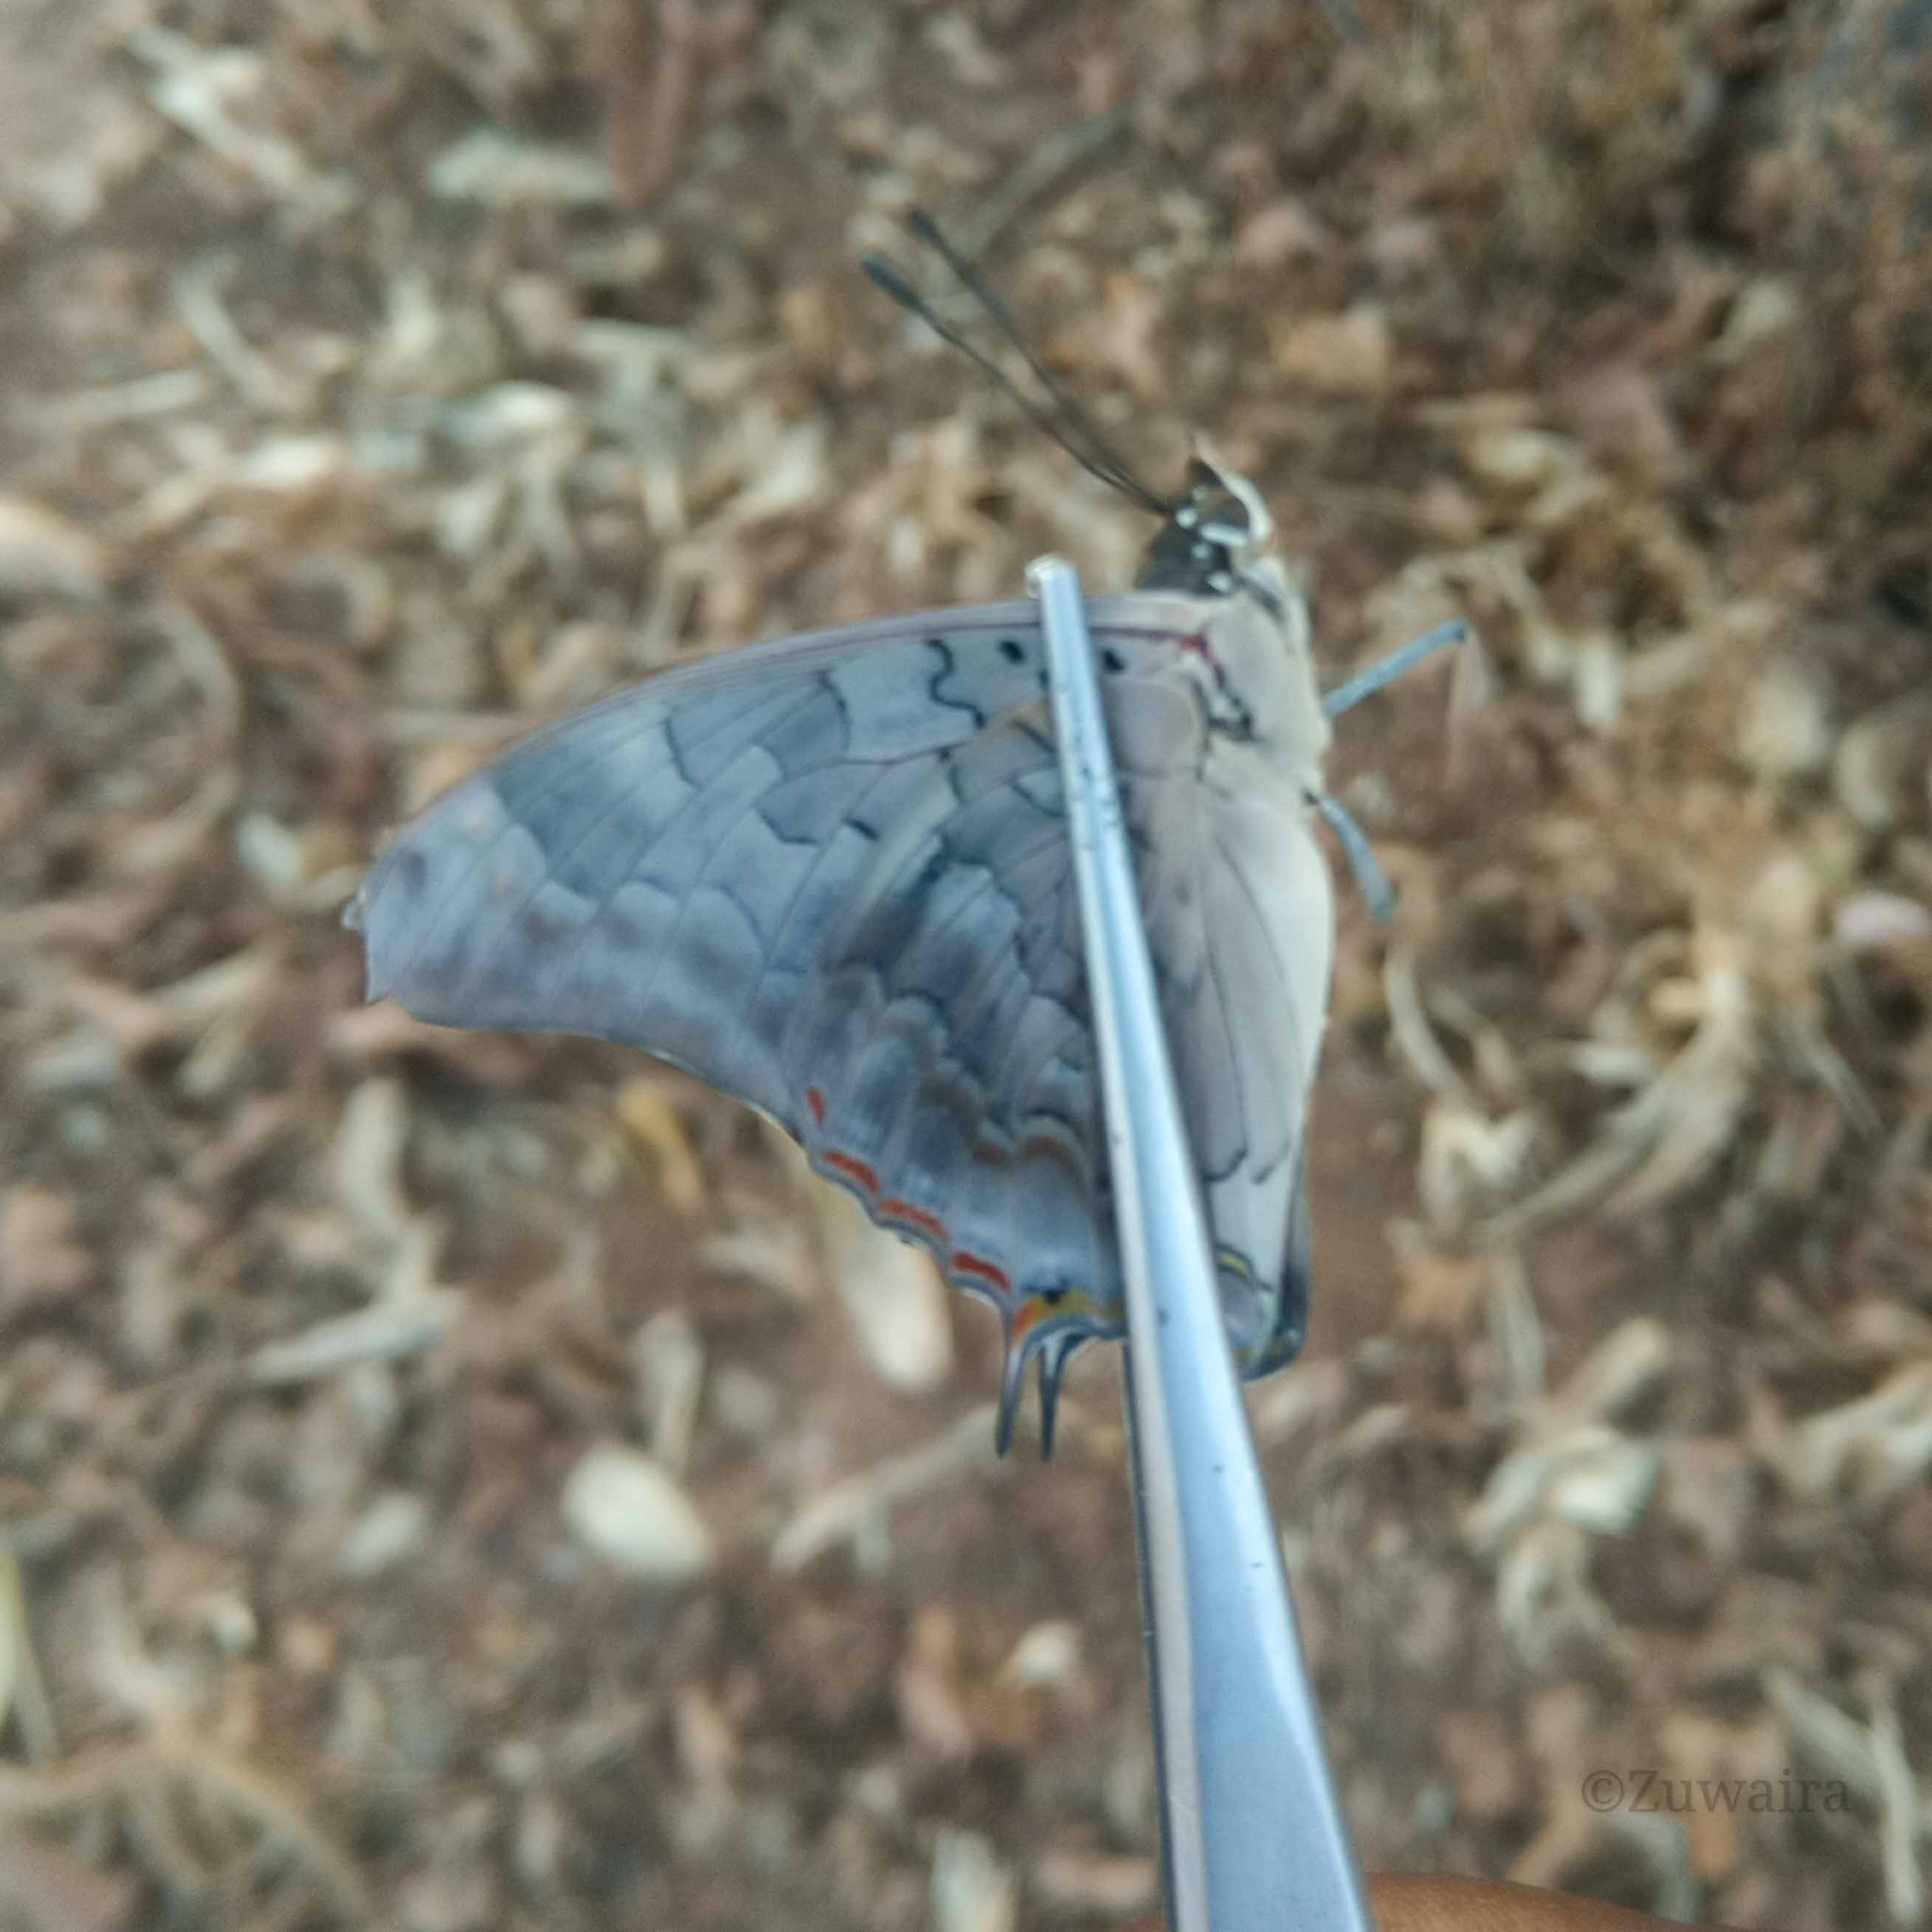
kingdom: Animalia
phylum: Arthropoda
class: Insecta
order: Lepidoptera
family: Nymphalidae
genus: Charaxes
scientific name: Charaxes viola
